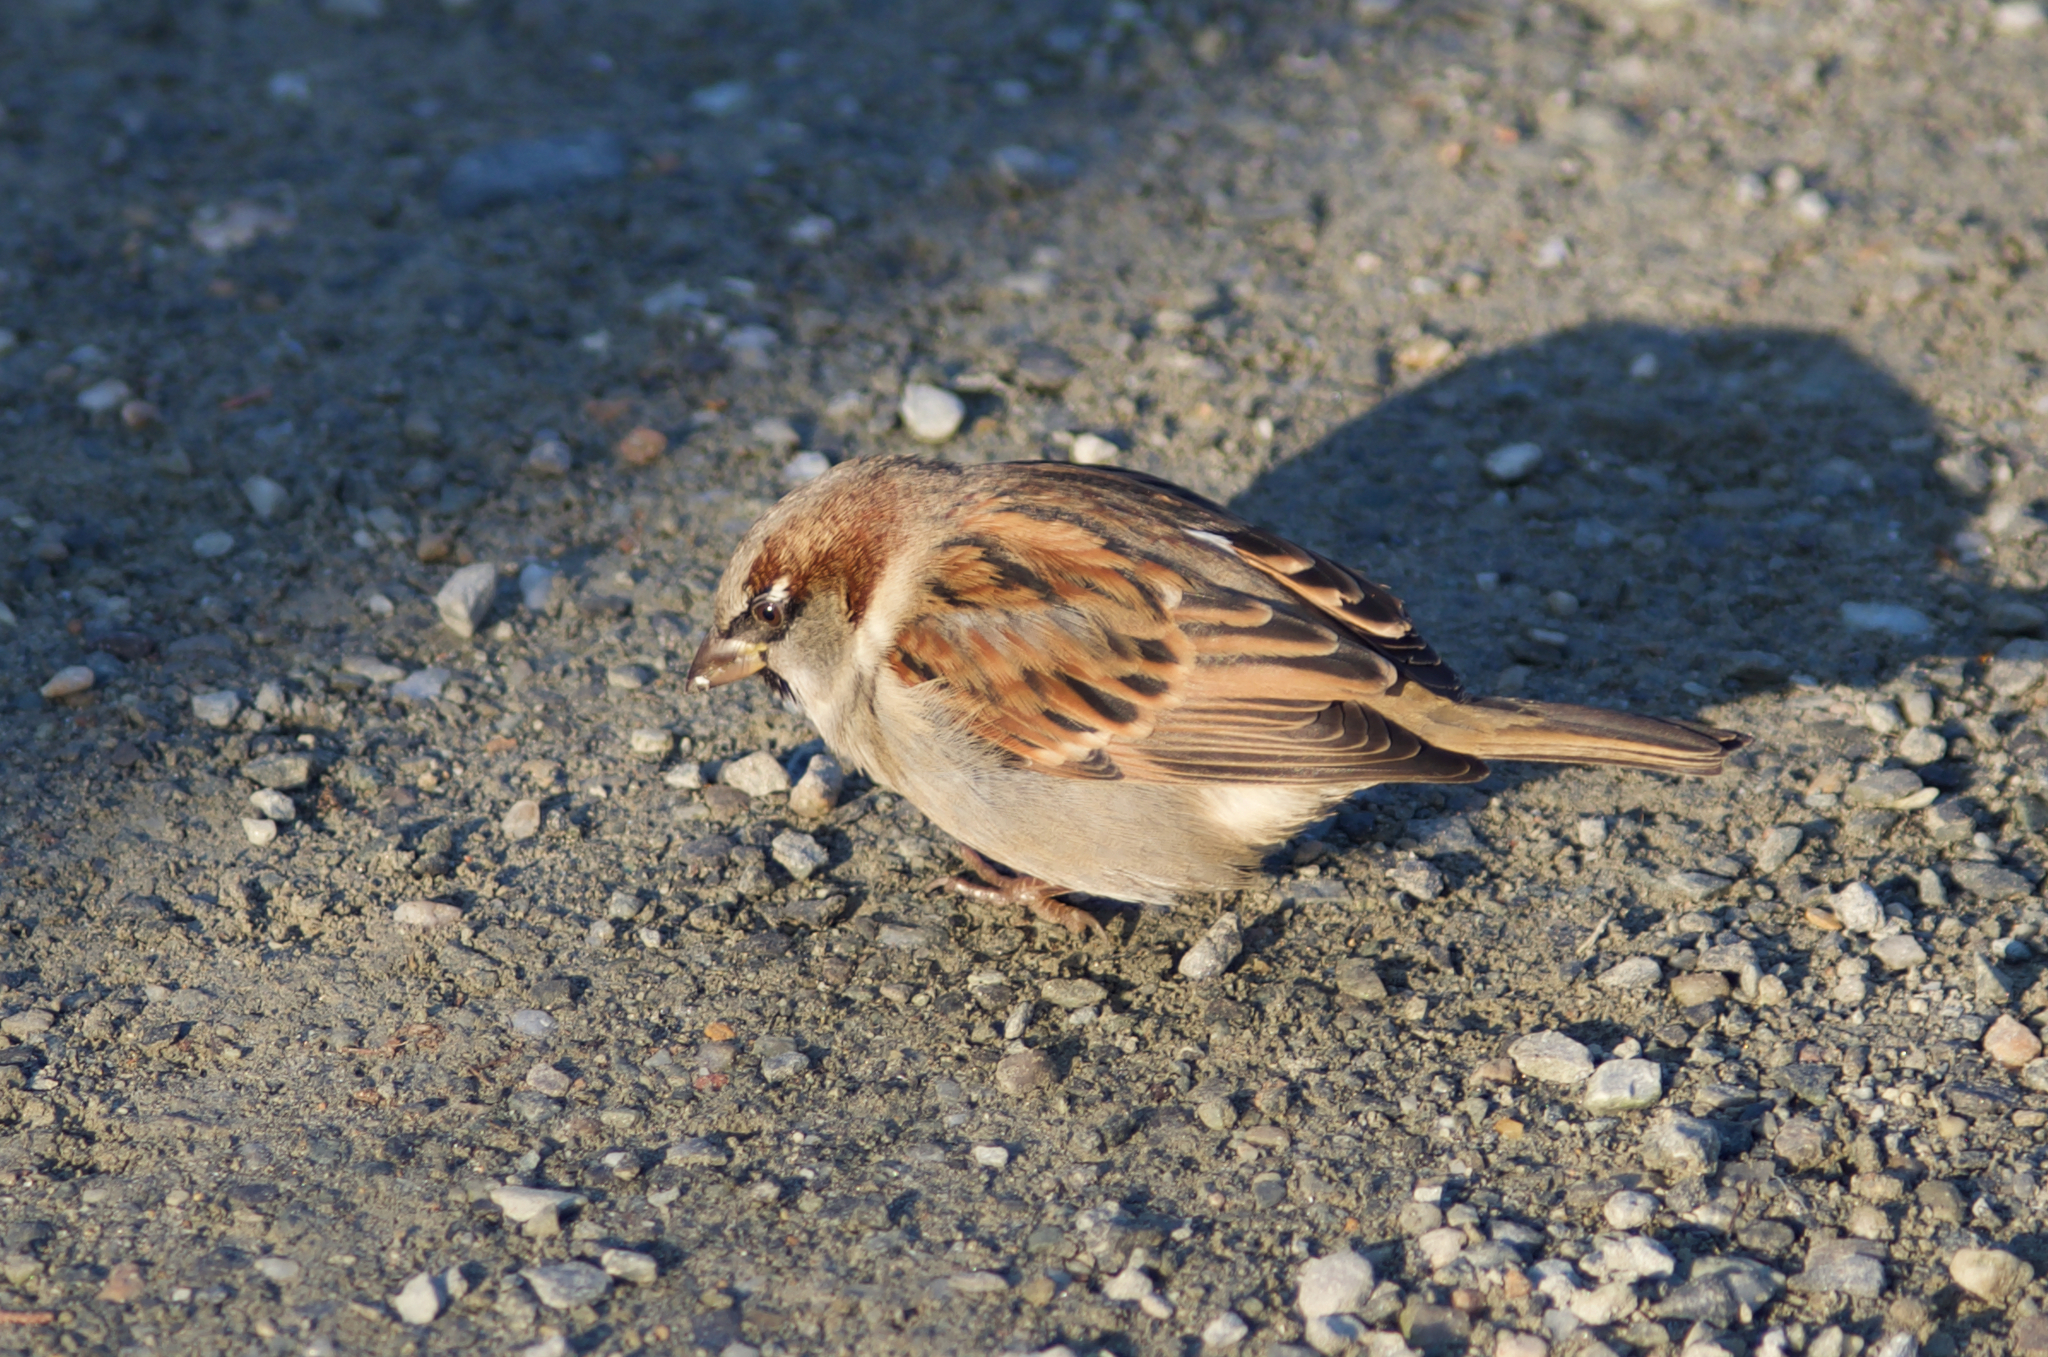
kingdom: Animalia
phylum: Chordata
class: Aves
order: Passeriformes
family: Passeridae
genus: Passer
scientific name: Passer domesticus
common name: House sparrow
